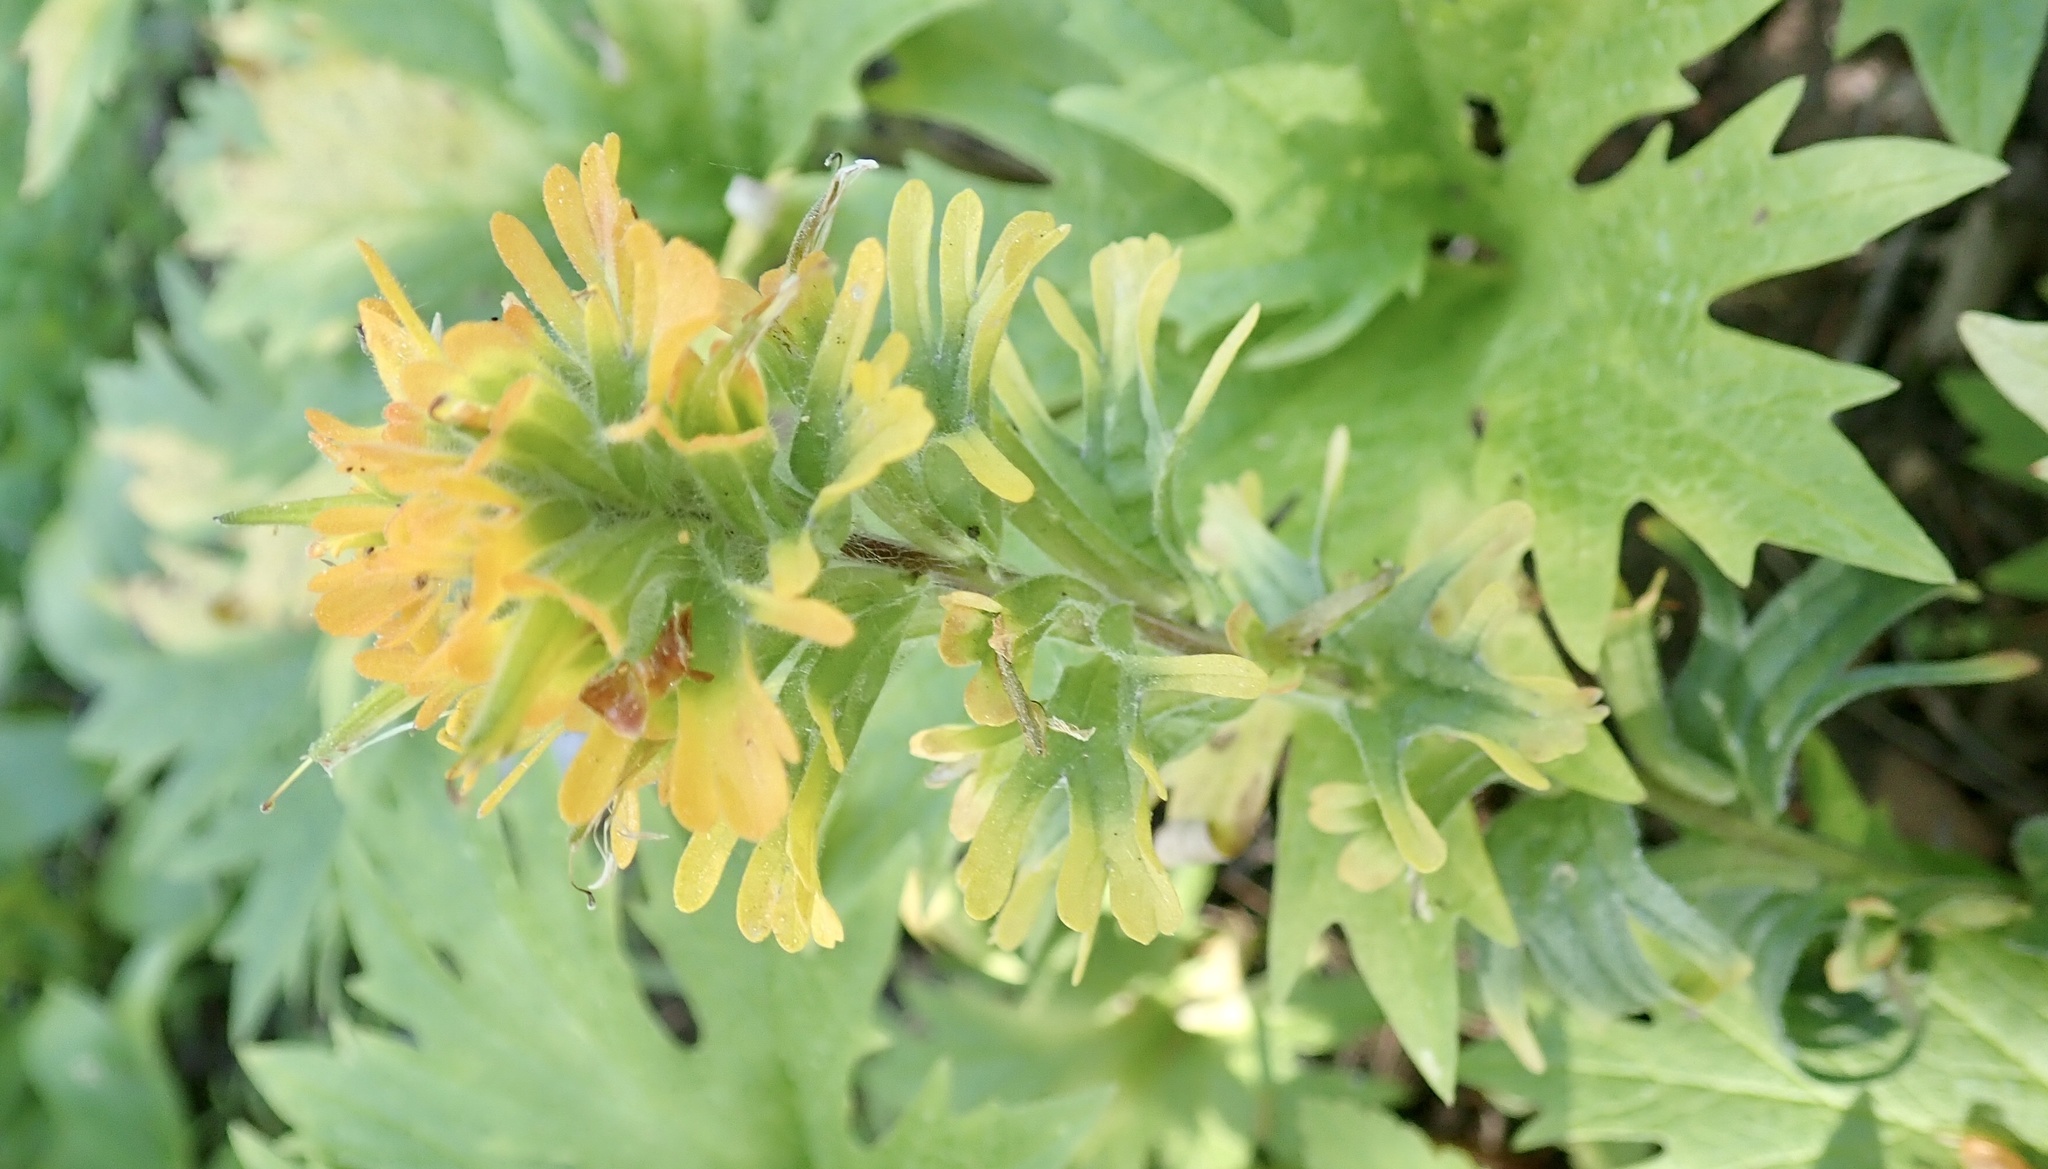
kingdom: Plantae
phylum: Tracheophyta
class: Magnoliopsida
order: Lamiales
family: Orobanchaceae
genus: Castilleja
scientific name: Castilleja hispida
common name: Bristly paintbrush
